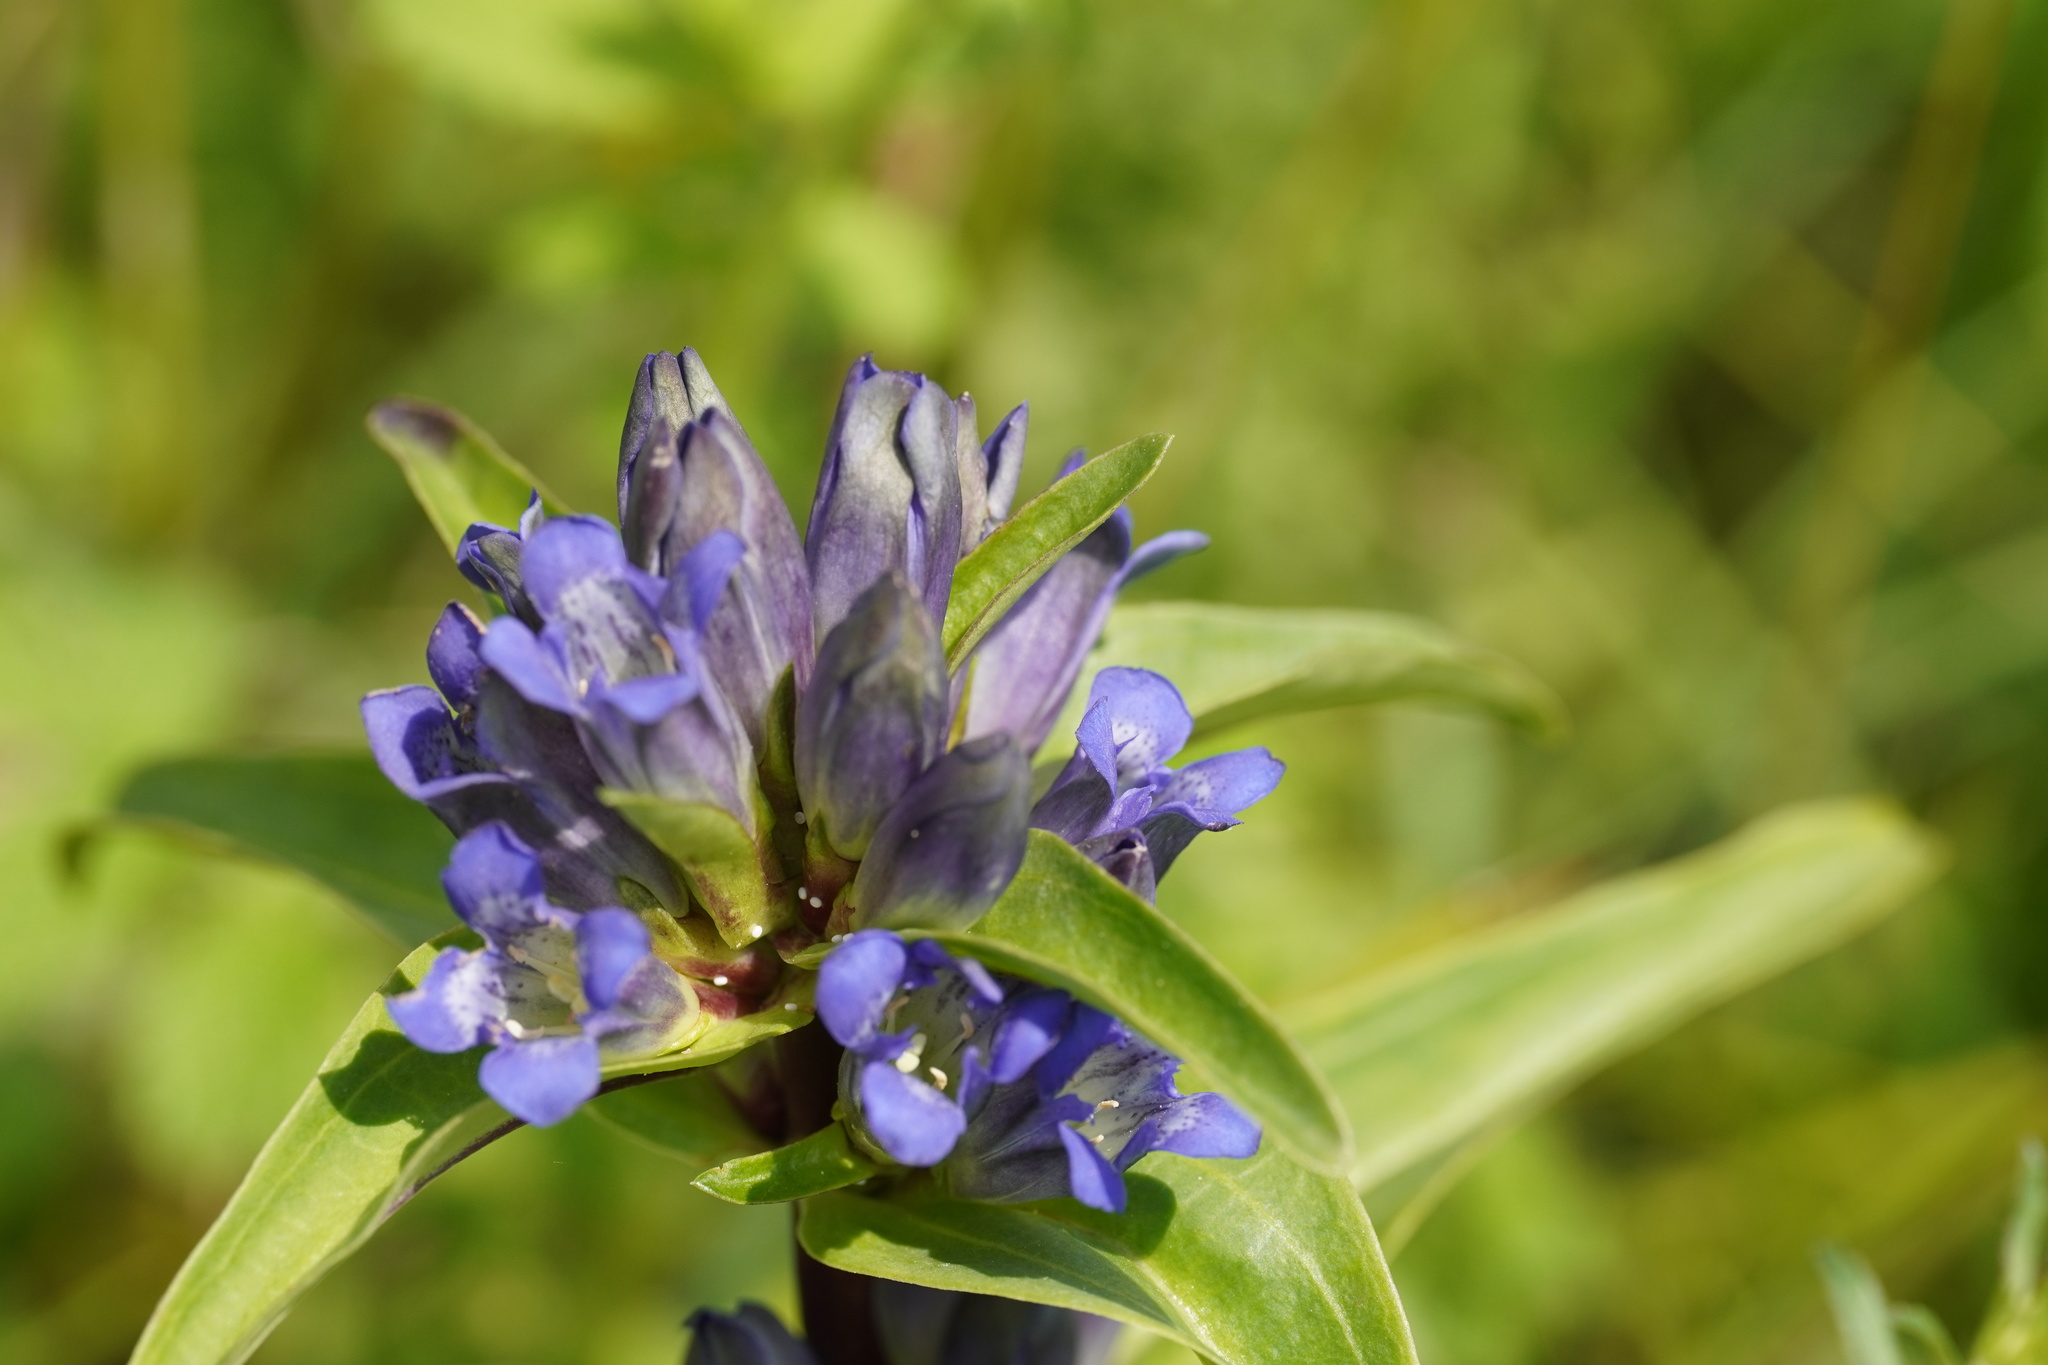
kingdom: Animalia
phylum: Arthropoda
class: Insecta
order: Lepidoptera
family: Lycaenidae
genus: Maculinea
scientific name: Maculinea alcon
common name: Alcon blue
